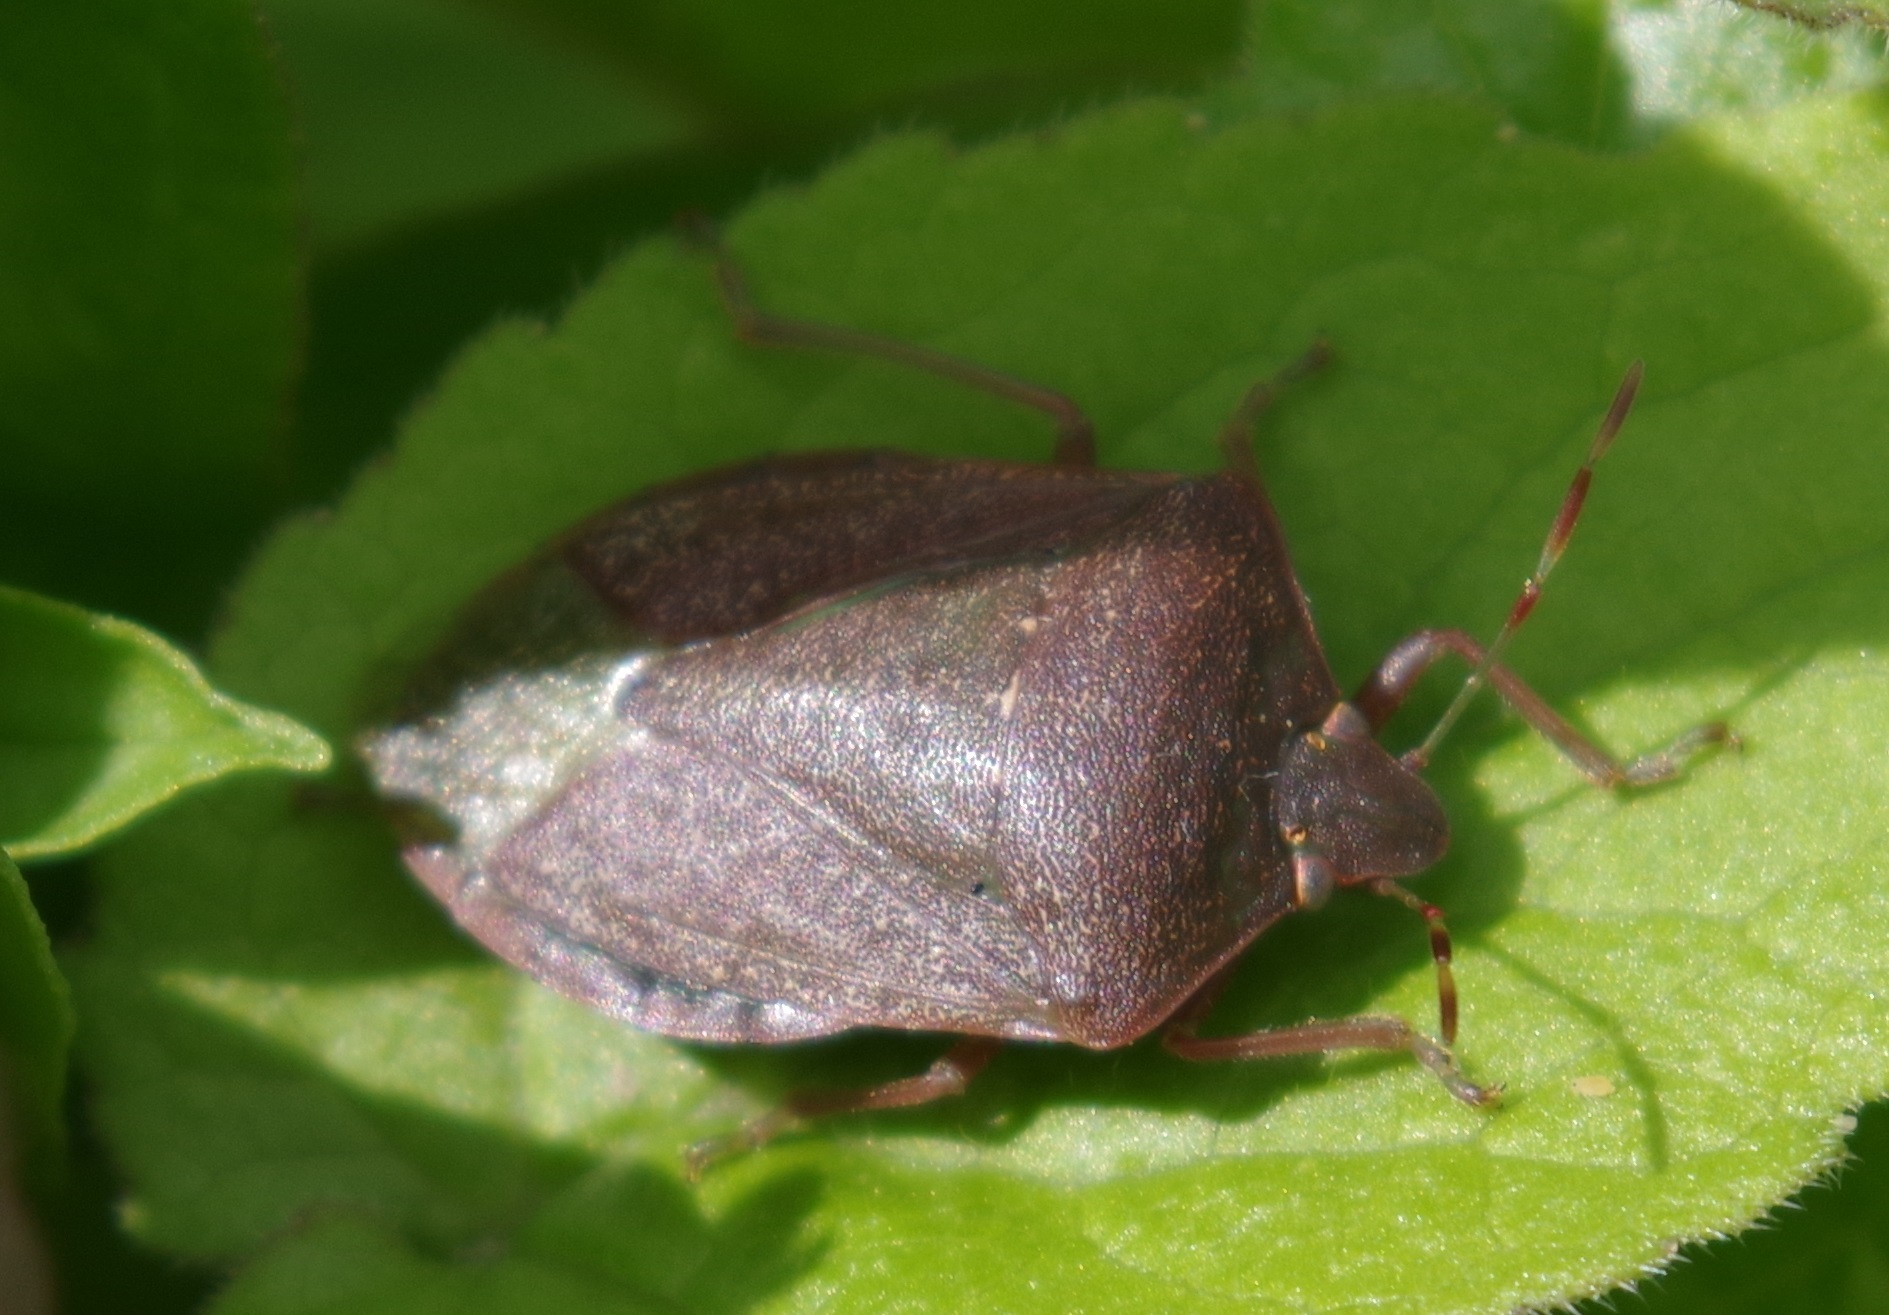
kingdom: Animalia
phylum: Arthropoda
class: Insecta
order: Hemiptera
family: Pentatomidae
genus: Nezara
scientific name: Nezara viridula
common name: Southern green stink bug
